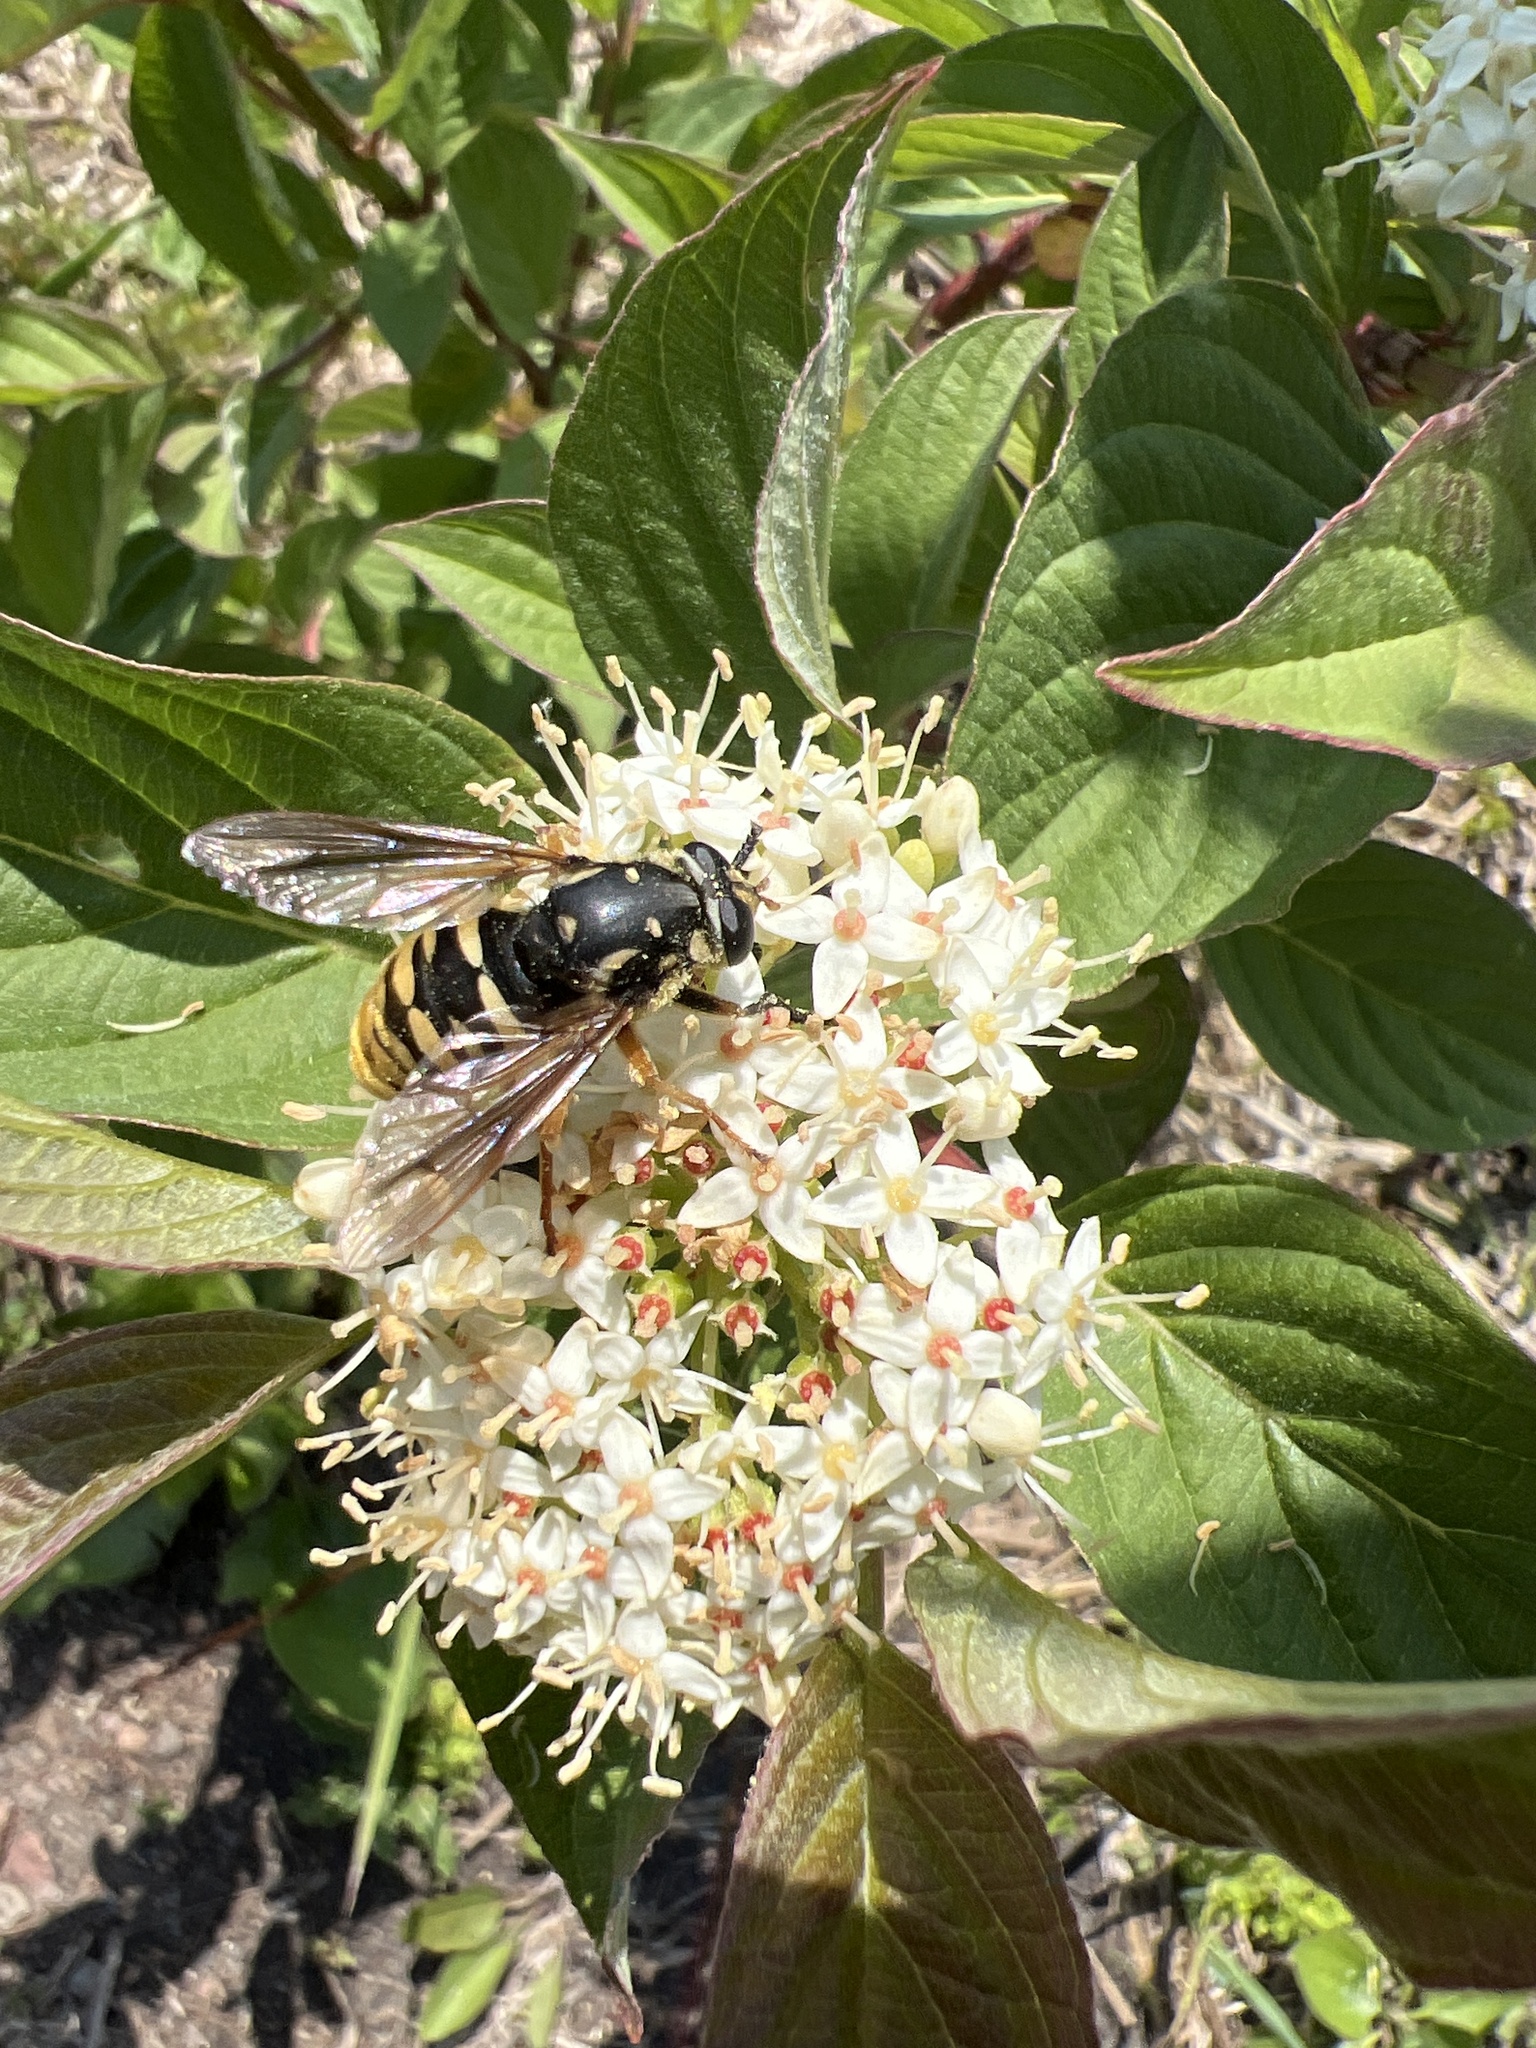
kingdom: Animalia
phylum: Arthropoda
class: Insecta
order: Diptera
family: Syrphidae
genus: Temnostoma
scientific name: Temnostoma alternans
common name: Wasp-like falsehorn
